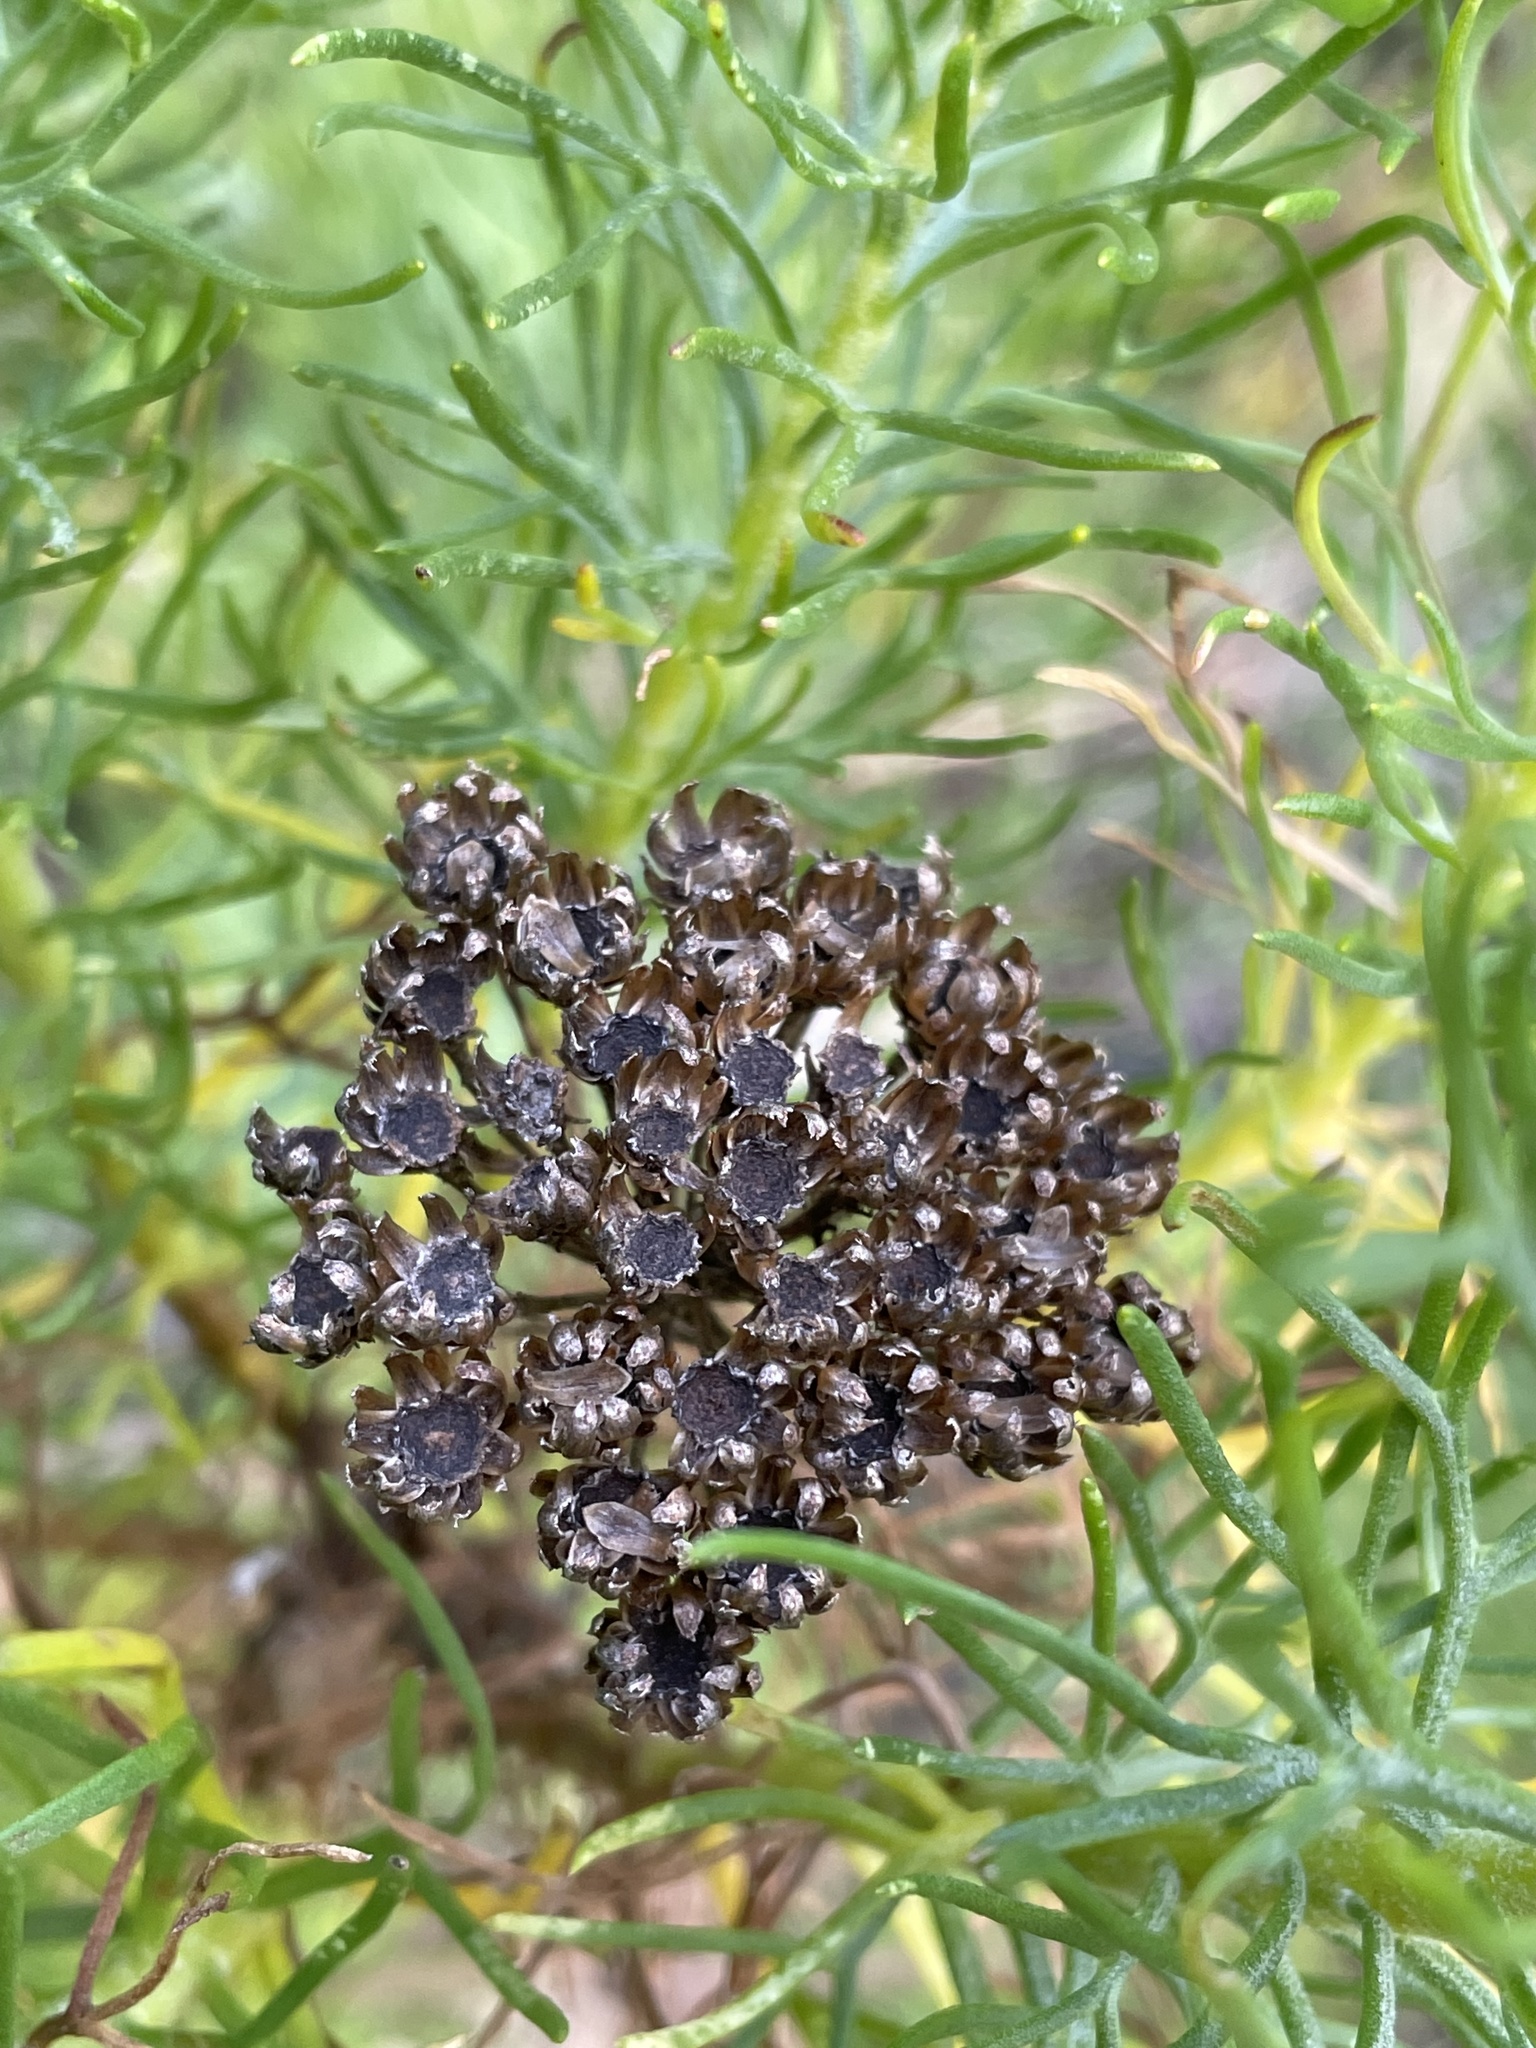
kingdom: Plantae
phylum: Tracheophyta
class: Magnoliopsida
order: Asterales
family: Asteraceae
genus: Athanasia
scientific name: Athanasia crithmifolia
